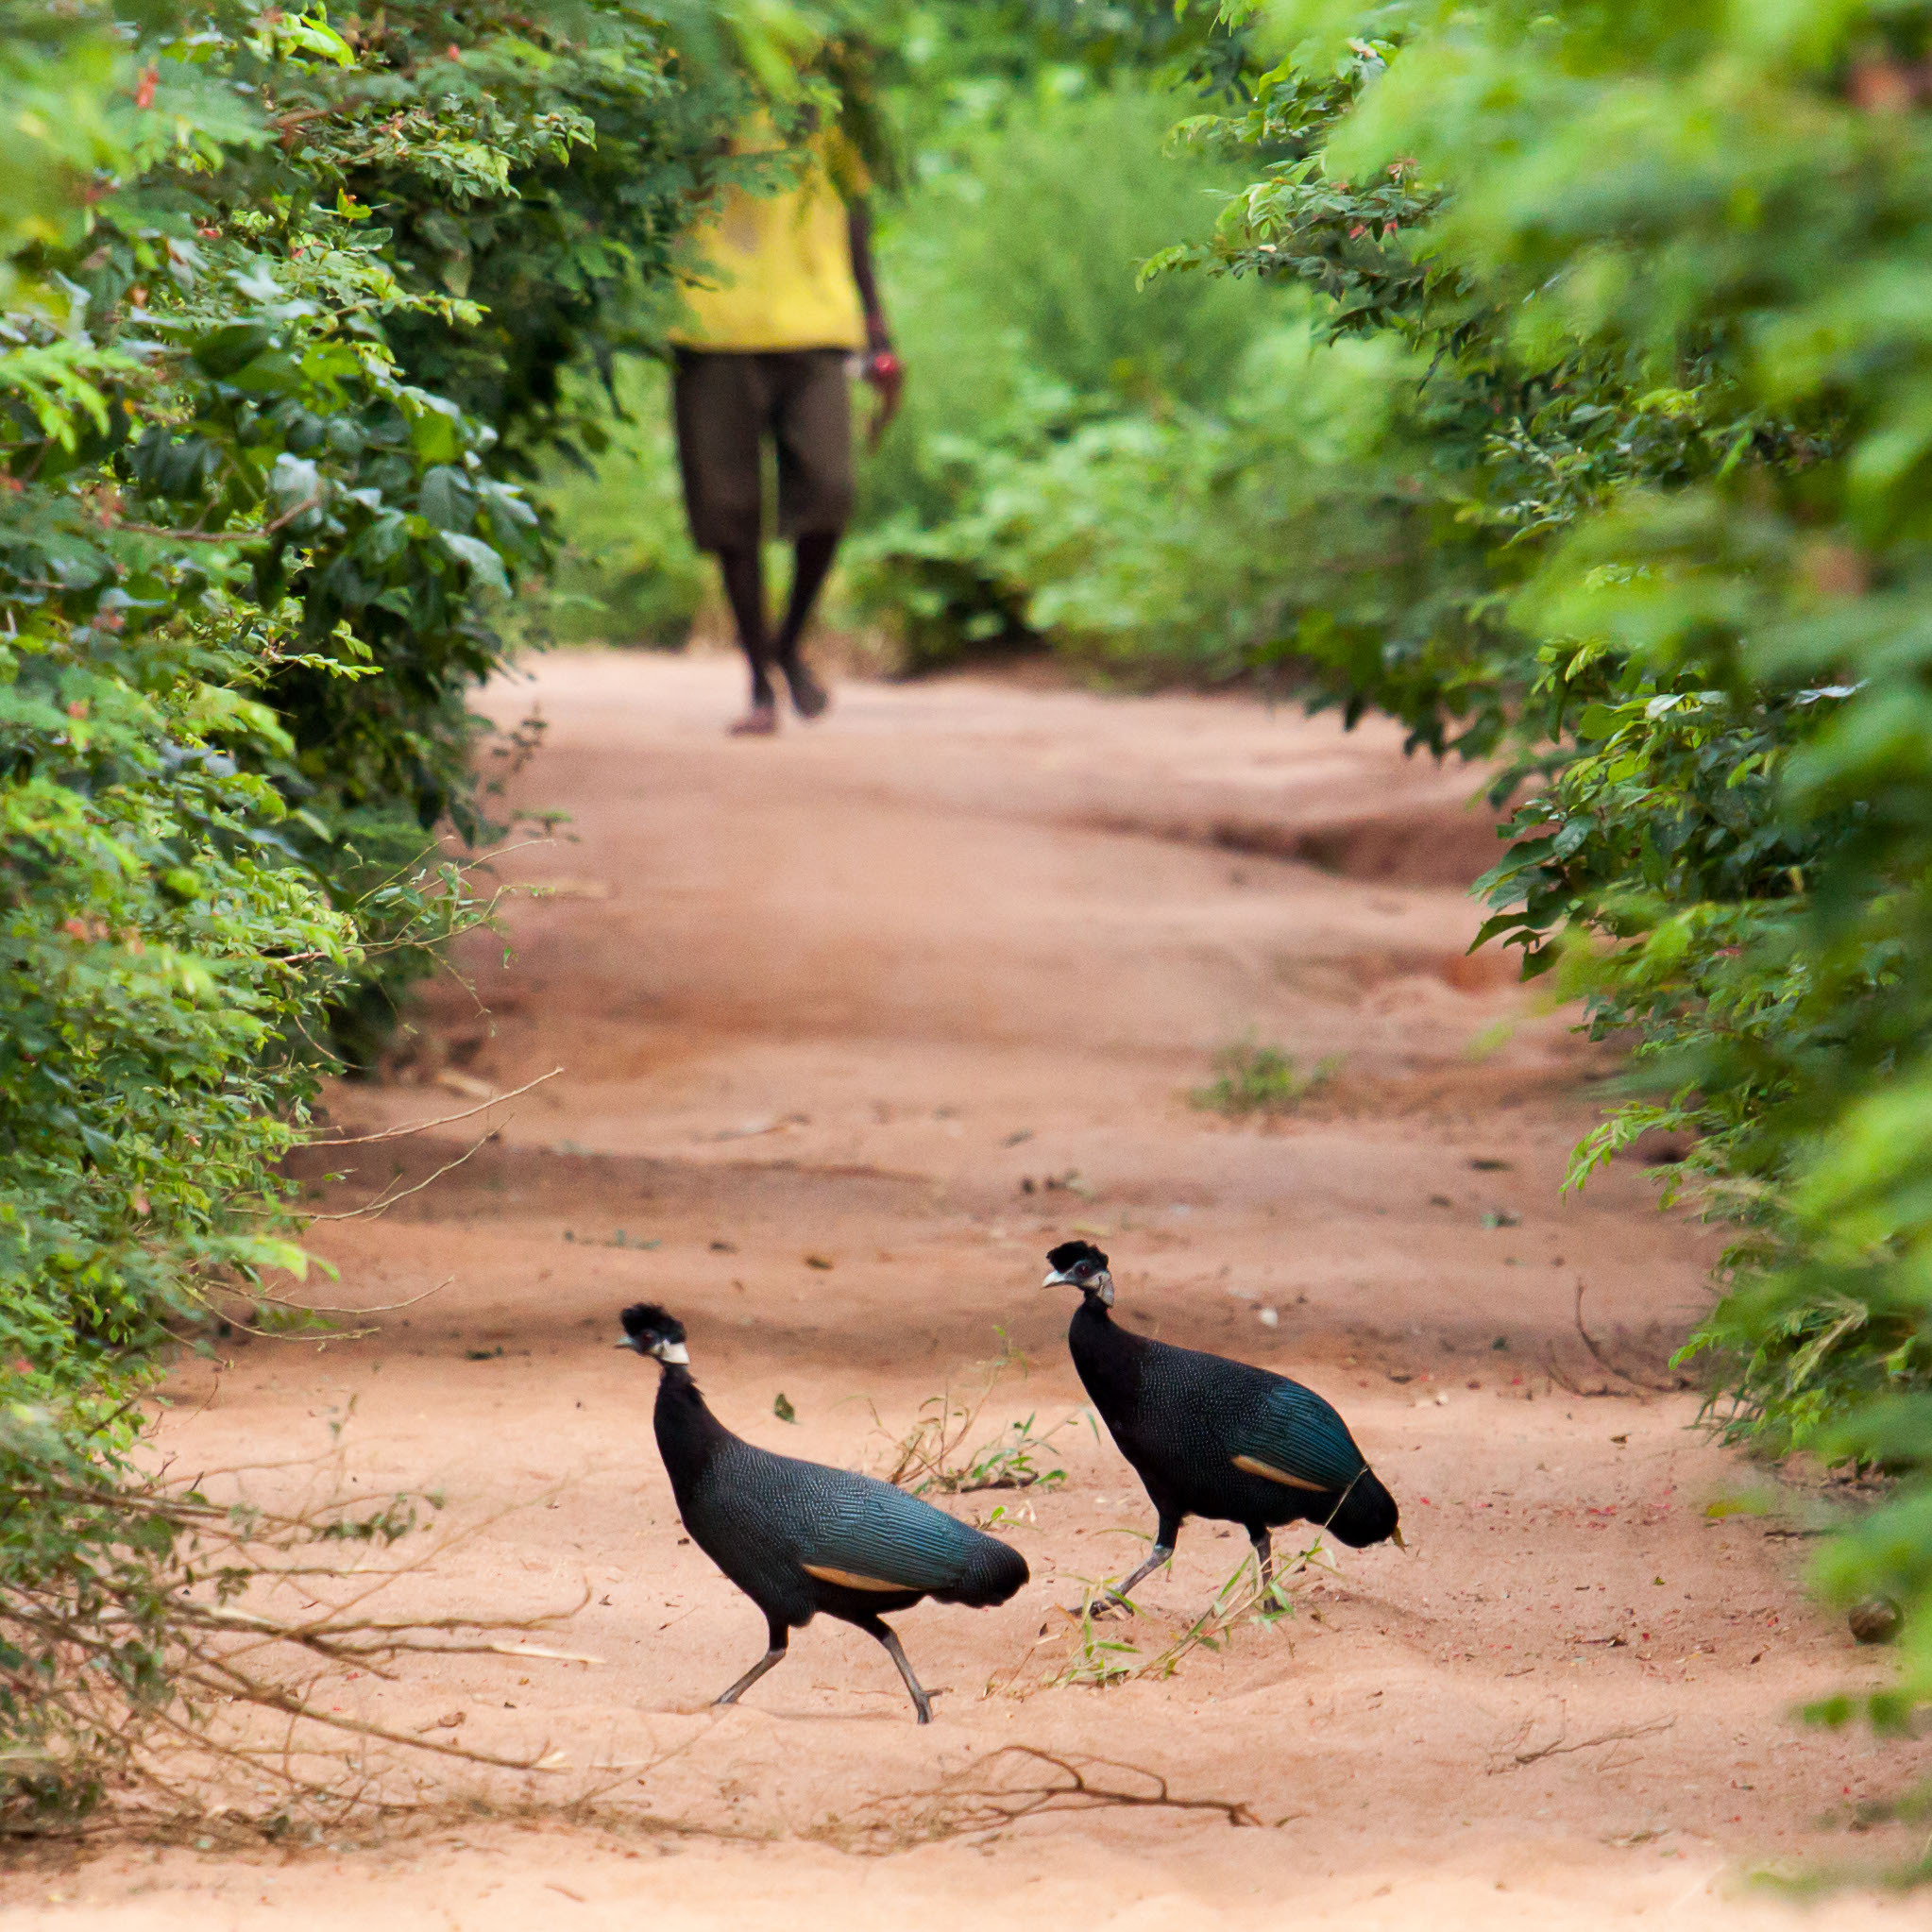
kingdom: Animalia
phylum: Chordata
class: Aves
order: Galliformes
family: Numididae
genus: Guttera
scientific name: Guttera pucherani
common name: Crested guineafowl
